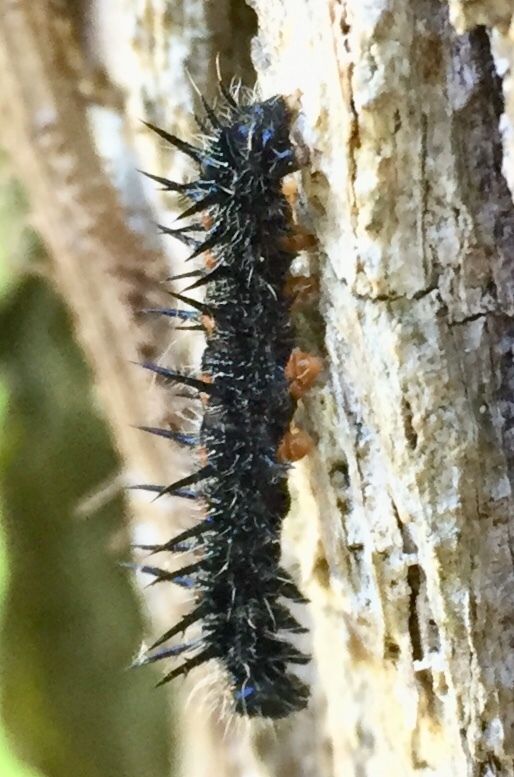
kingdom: Animalia
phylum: Arthropoda
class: Insecta
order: Lepidoptera
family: Nymphalidae
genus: Nymphalis
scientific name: Nymphalis antiopa
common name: Camberwell beauty
